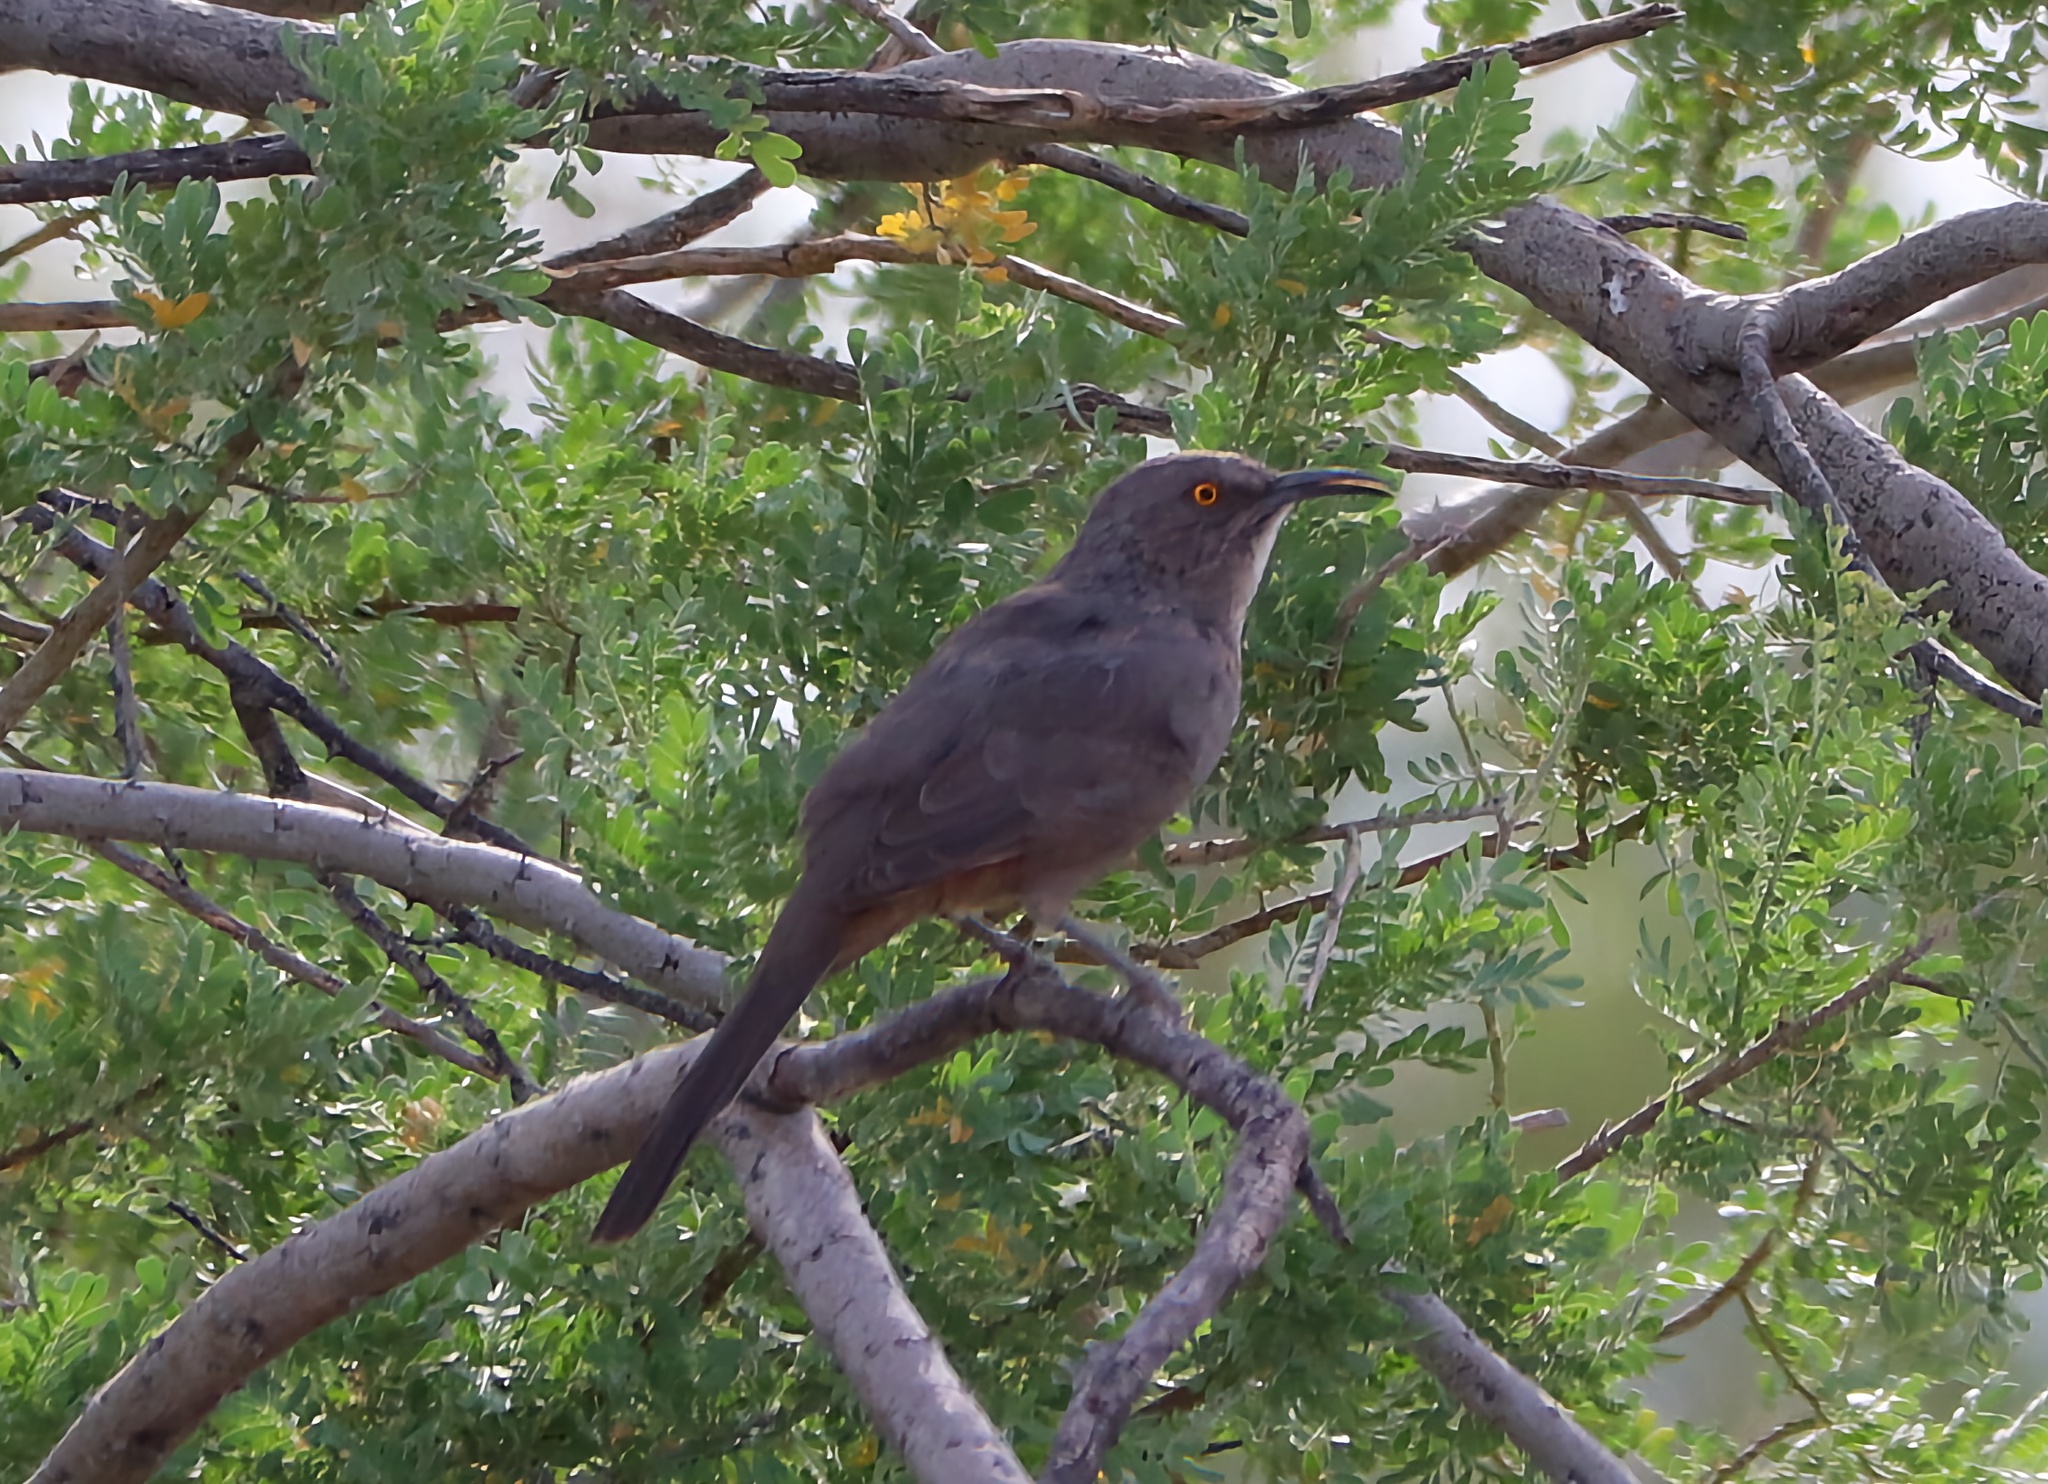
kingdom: Animalia
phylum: Chordata
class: Aves
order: Passeriformes
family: Mimidae
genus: Toxostoma
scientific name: Toxostoma curvirostre
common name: Curve-billed thrasher
